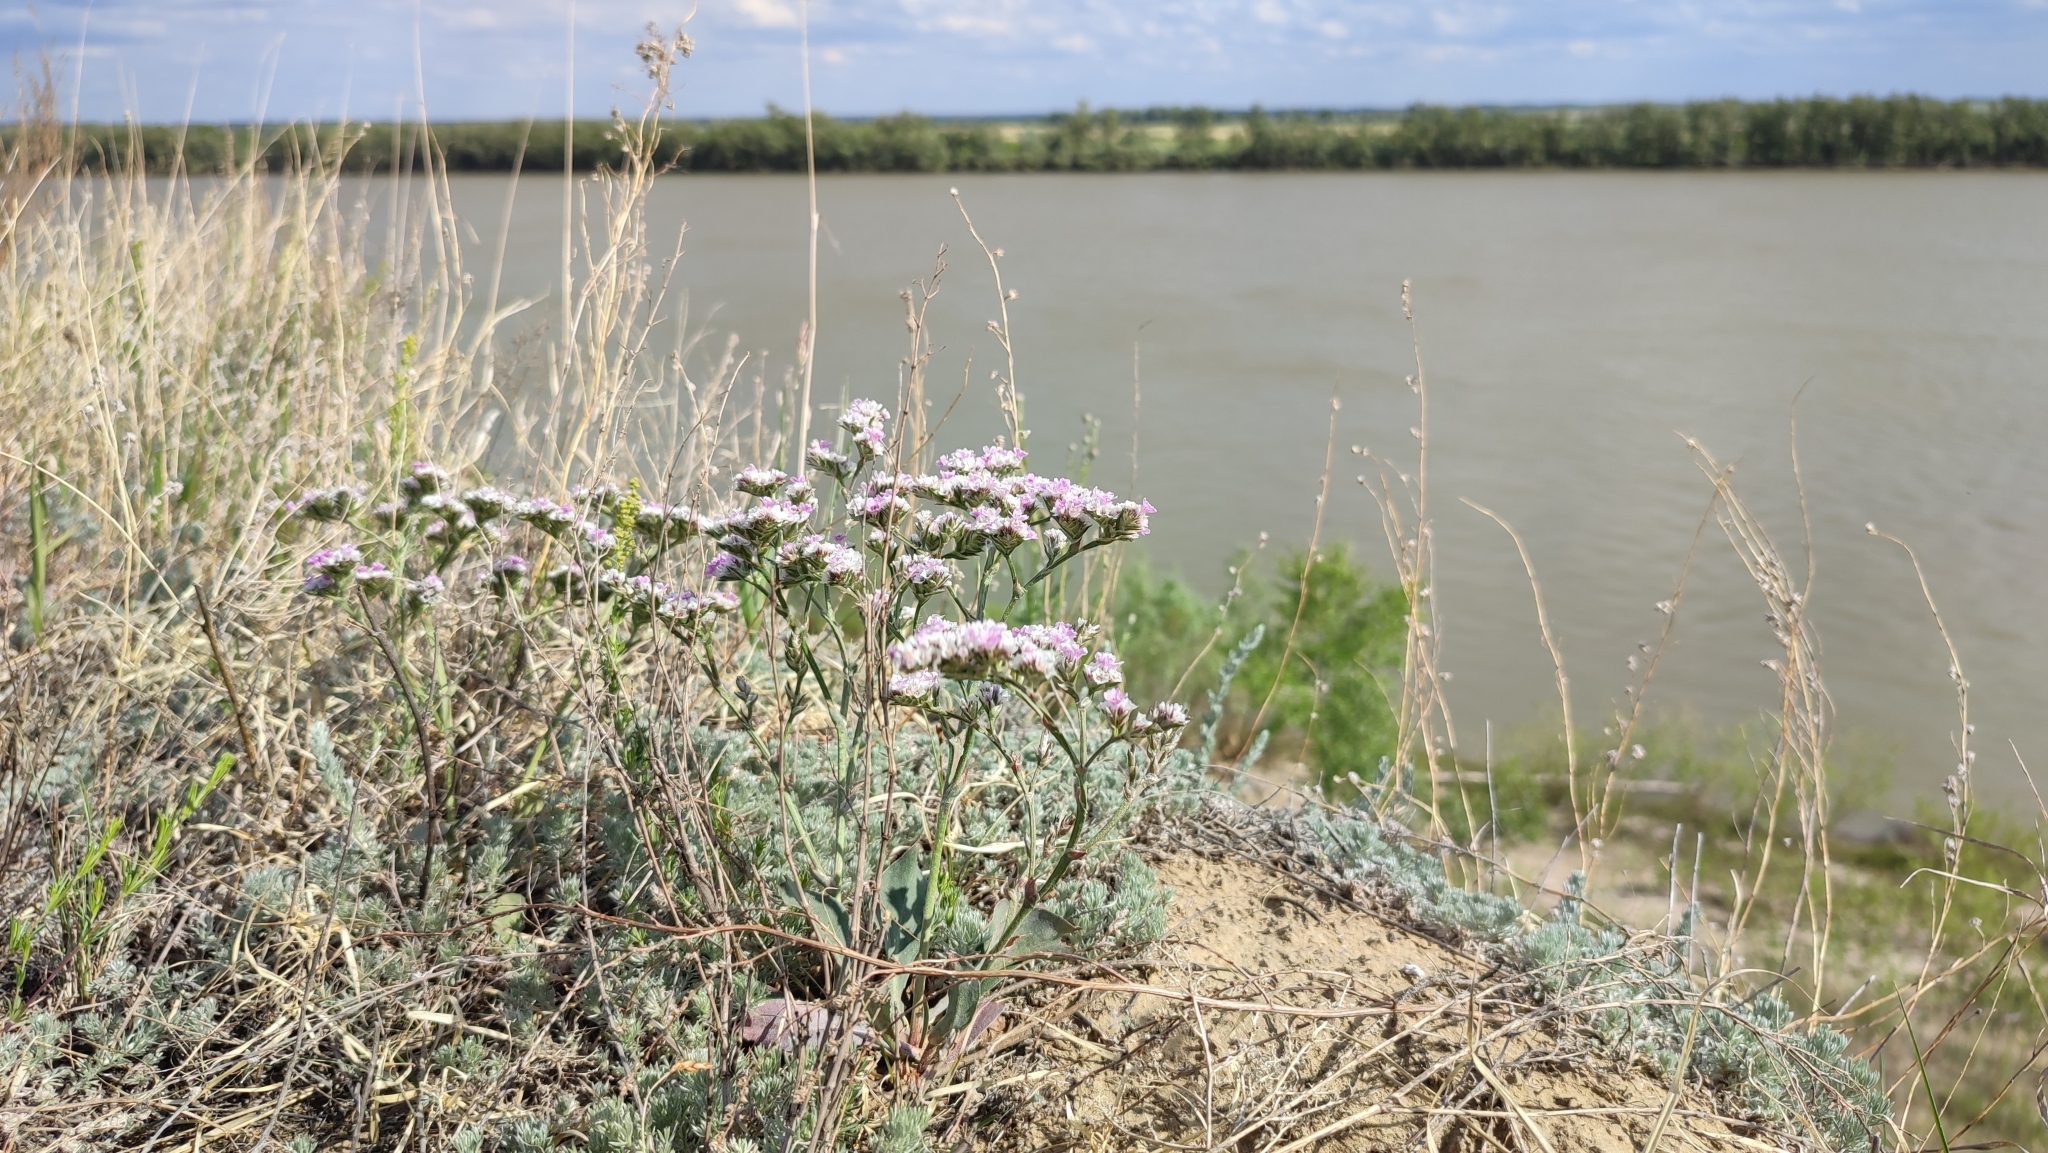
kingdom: Plantae
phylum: Tracheophyta
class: Magnoliopsida
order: Caryophyllales
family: Plumbaginaceae
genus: Goniolimon
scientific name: Goniolimon speciosum
